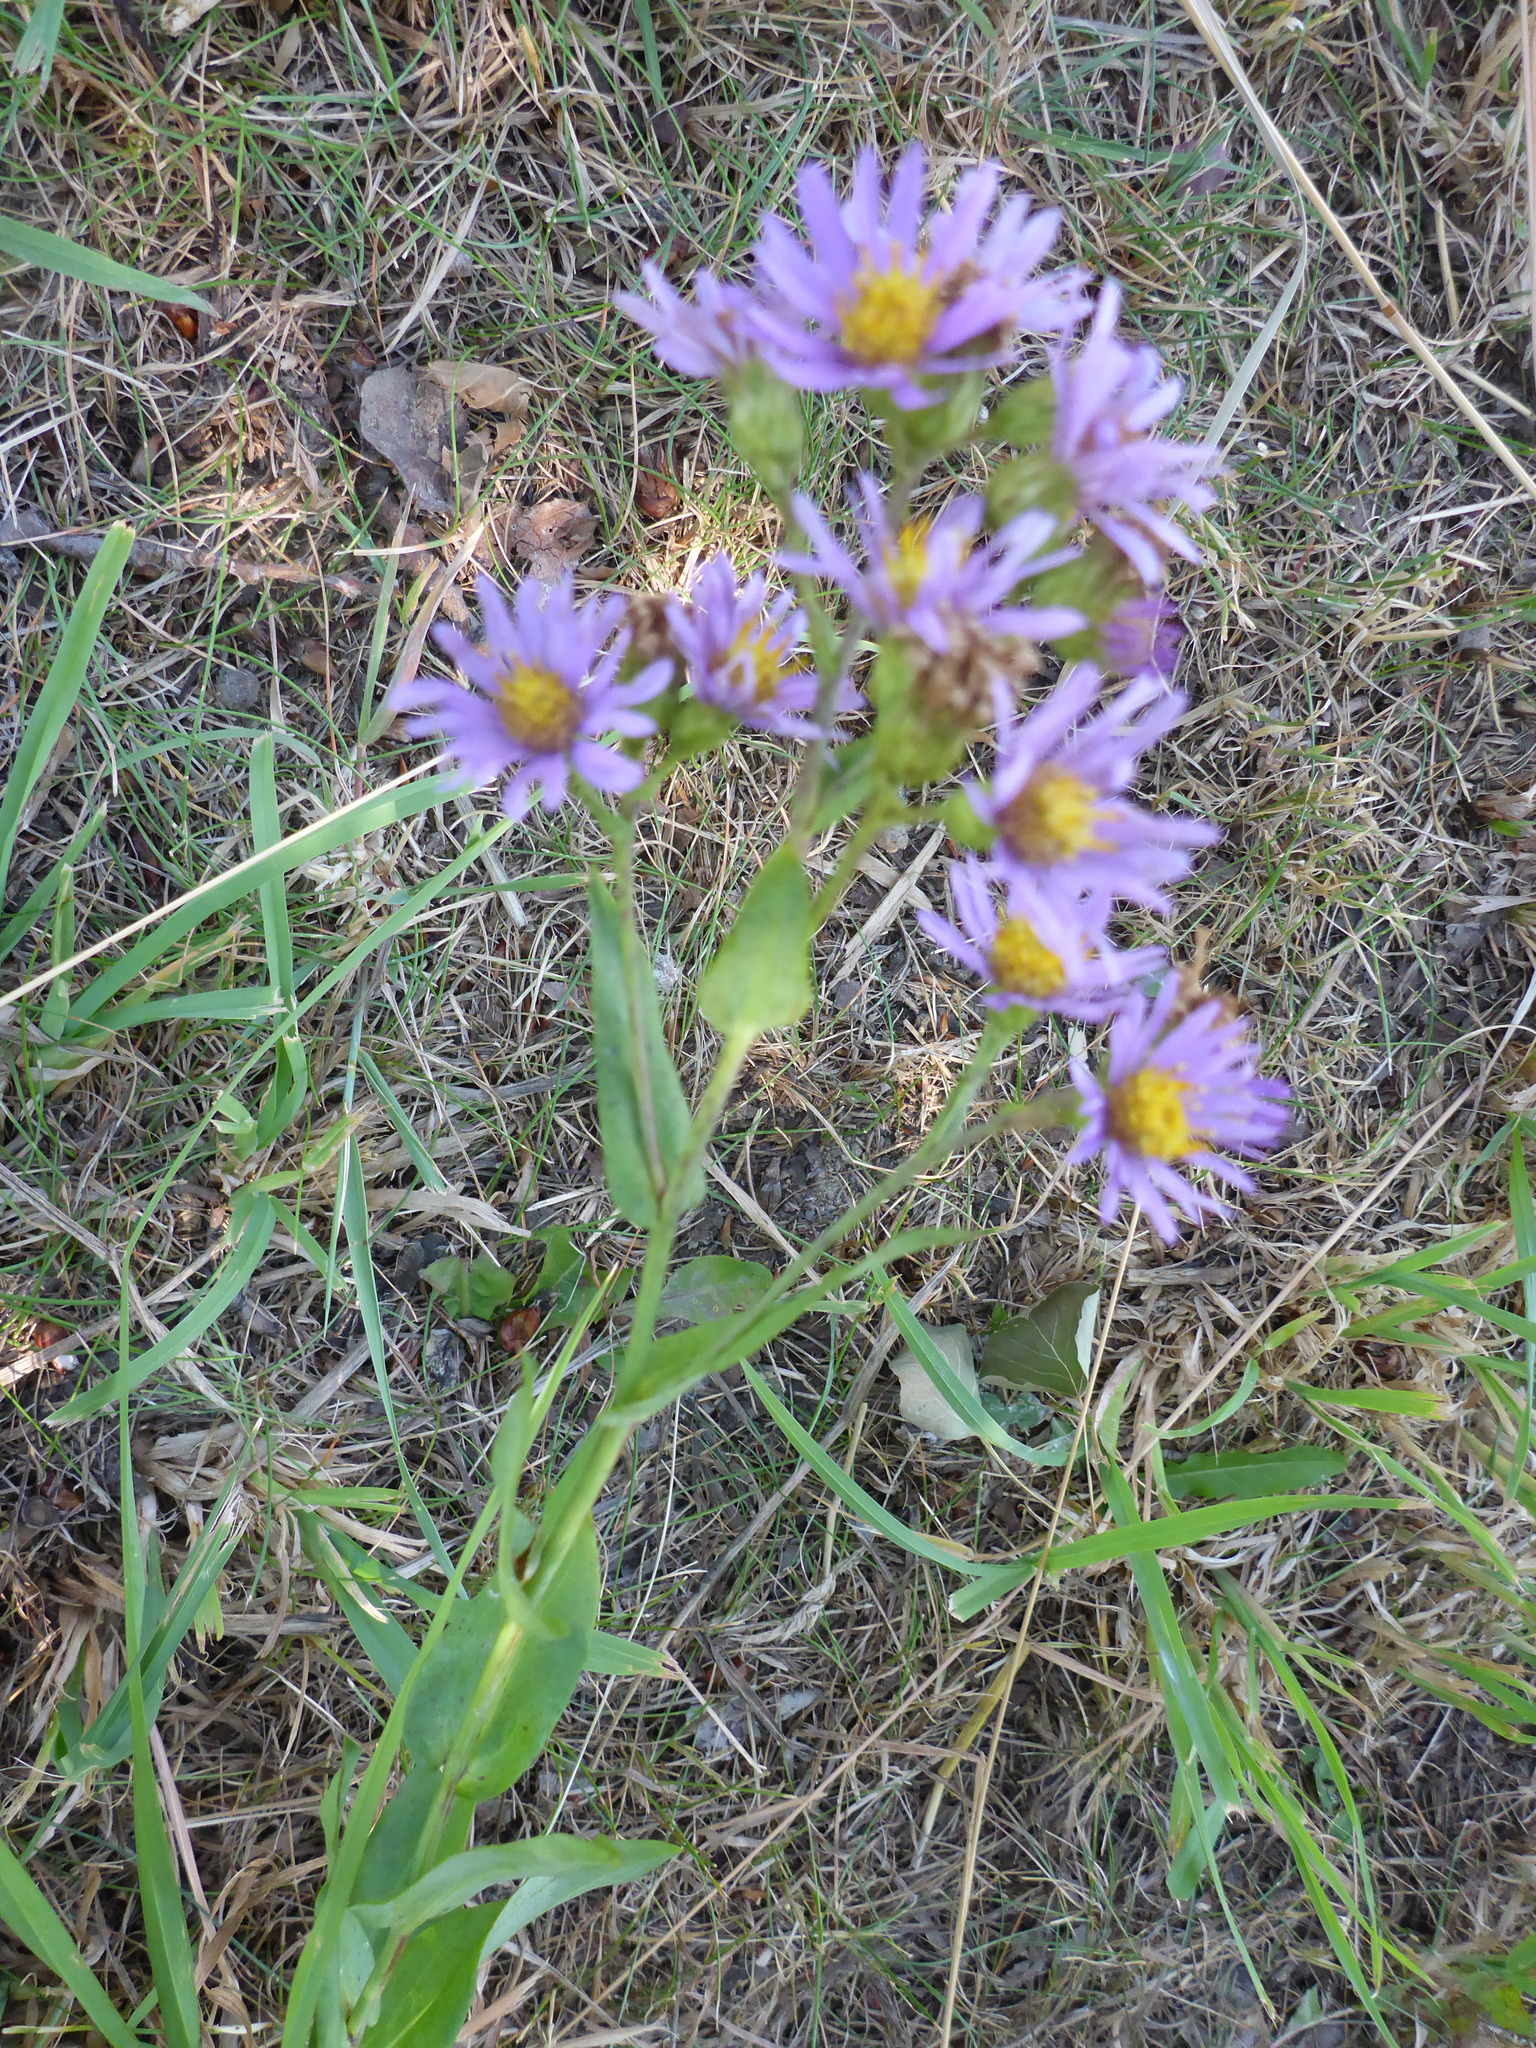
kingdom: Plantae
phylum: Tracheophyta
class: Magnoliopsida
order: Asterales
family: Asteraceae
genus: Symphyotrichum
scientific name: Symphyotrichum laeve
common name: Glaucous aster
